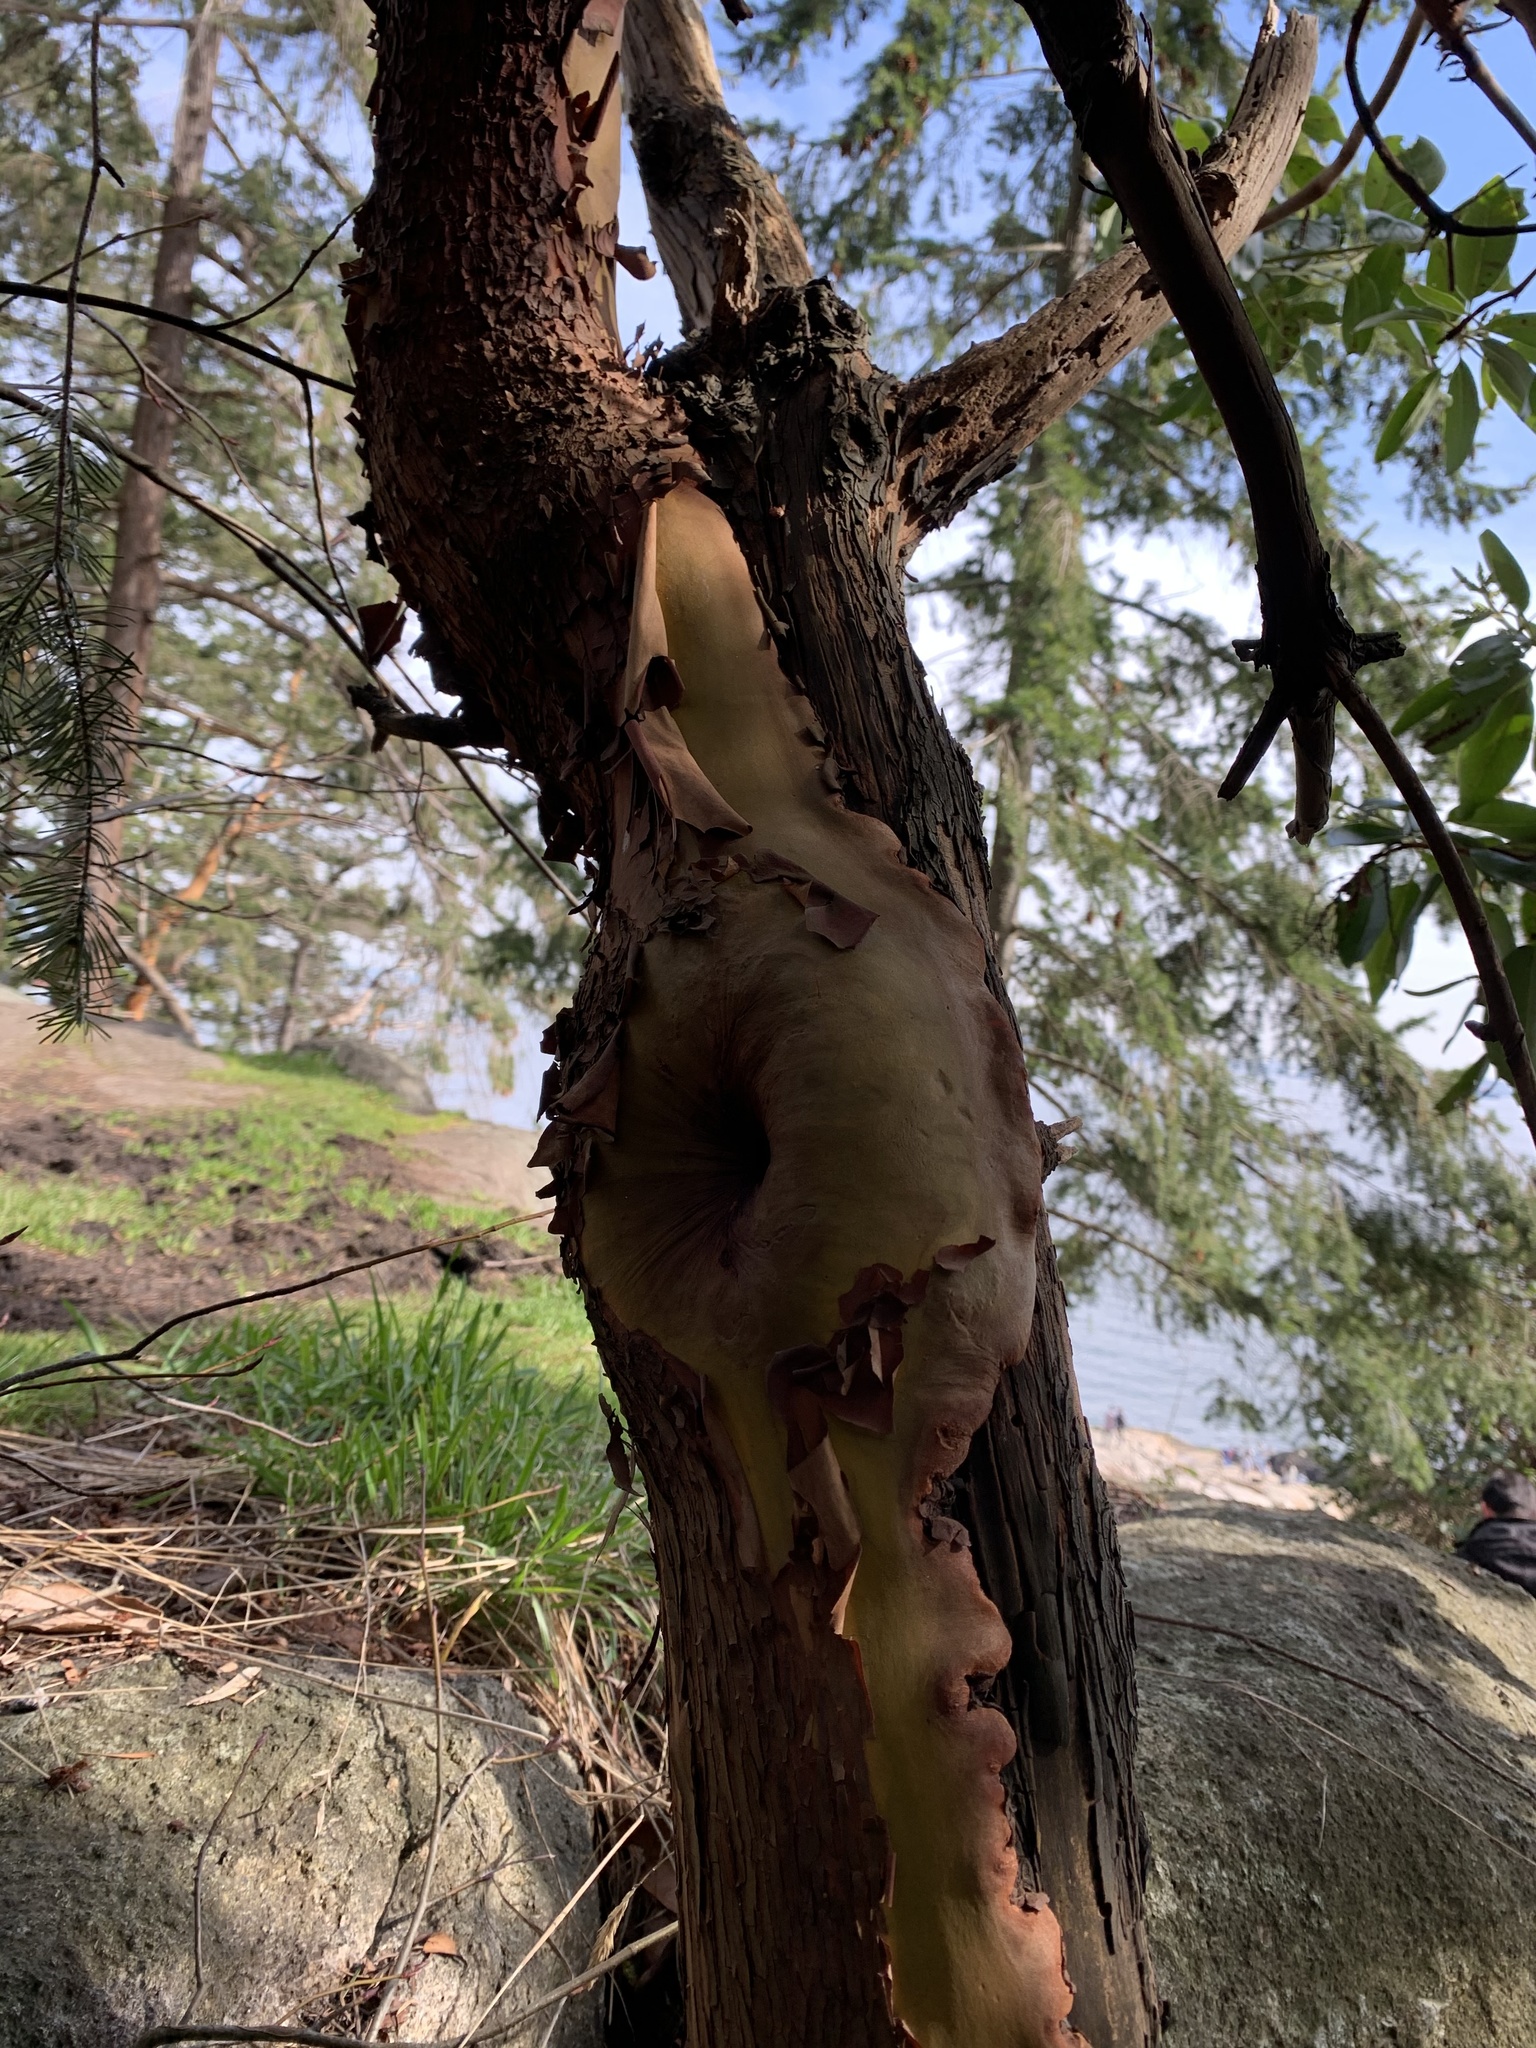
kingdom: Plantae
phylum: Tracheophyta
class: Magnoliopsida
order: Ericales
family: Ericaceae
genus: Arbutus
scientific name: Arbutus menziesii
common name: Pacific madrone
